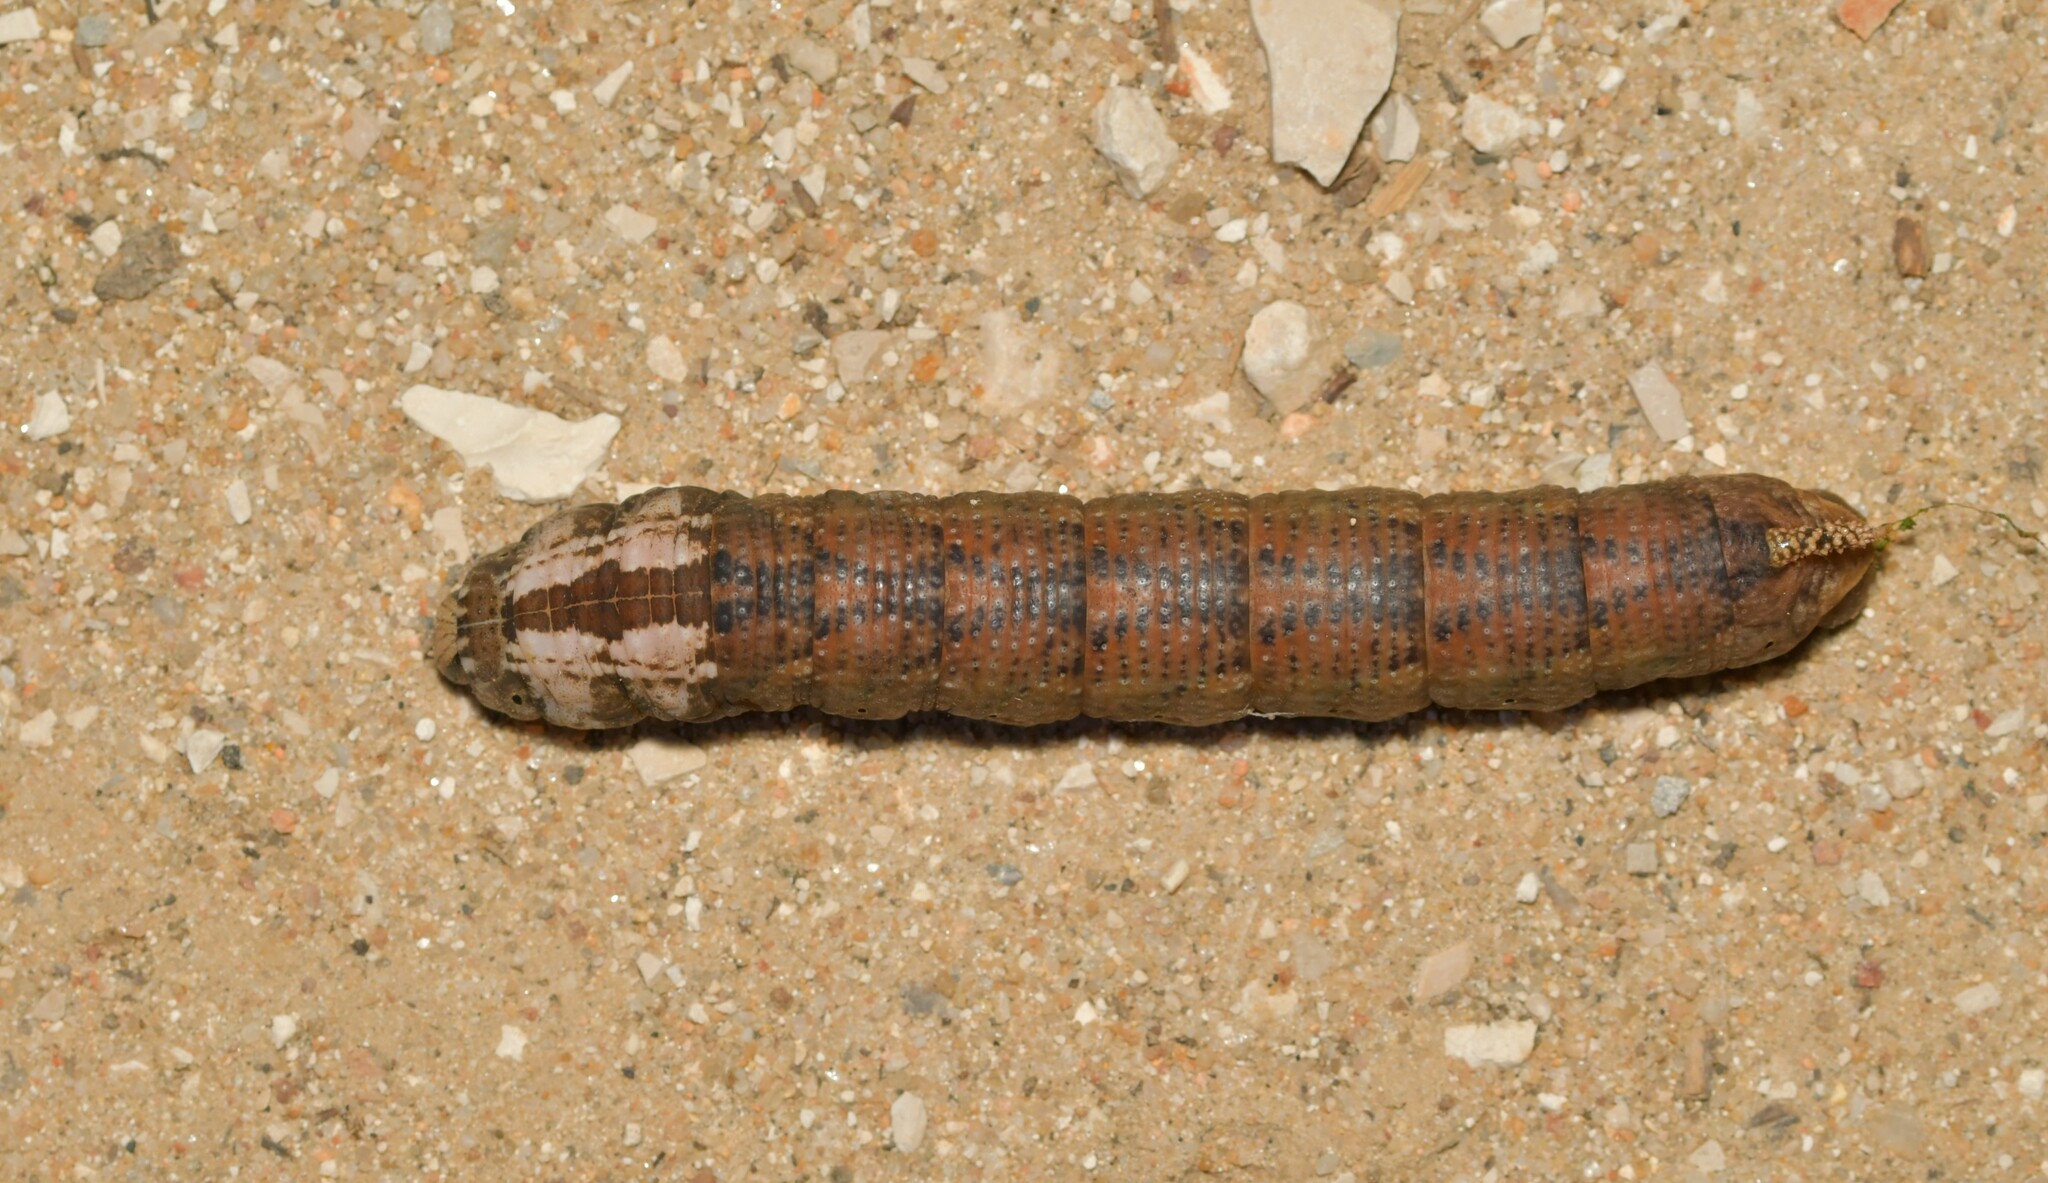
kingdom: Animalia
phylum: Arthropoda
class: Insecta
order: Lepidoptera
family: Sphingidae
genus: Acherontia
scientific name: Acherontia atropos
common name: Death's-head hawk moth
